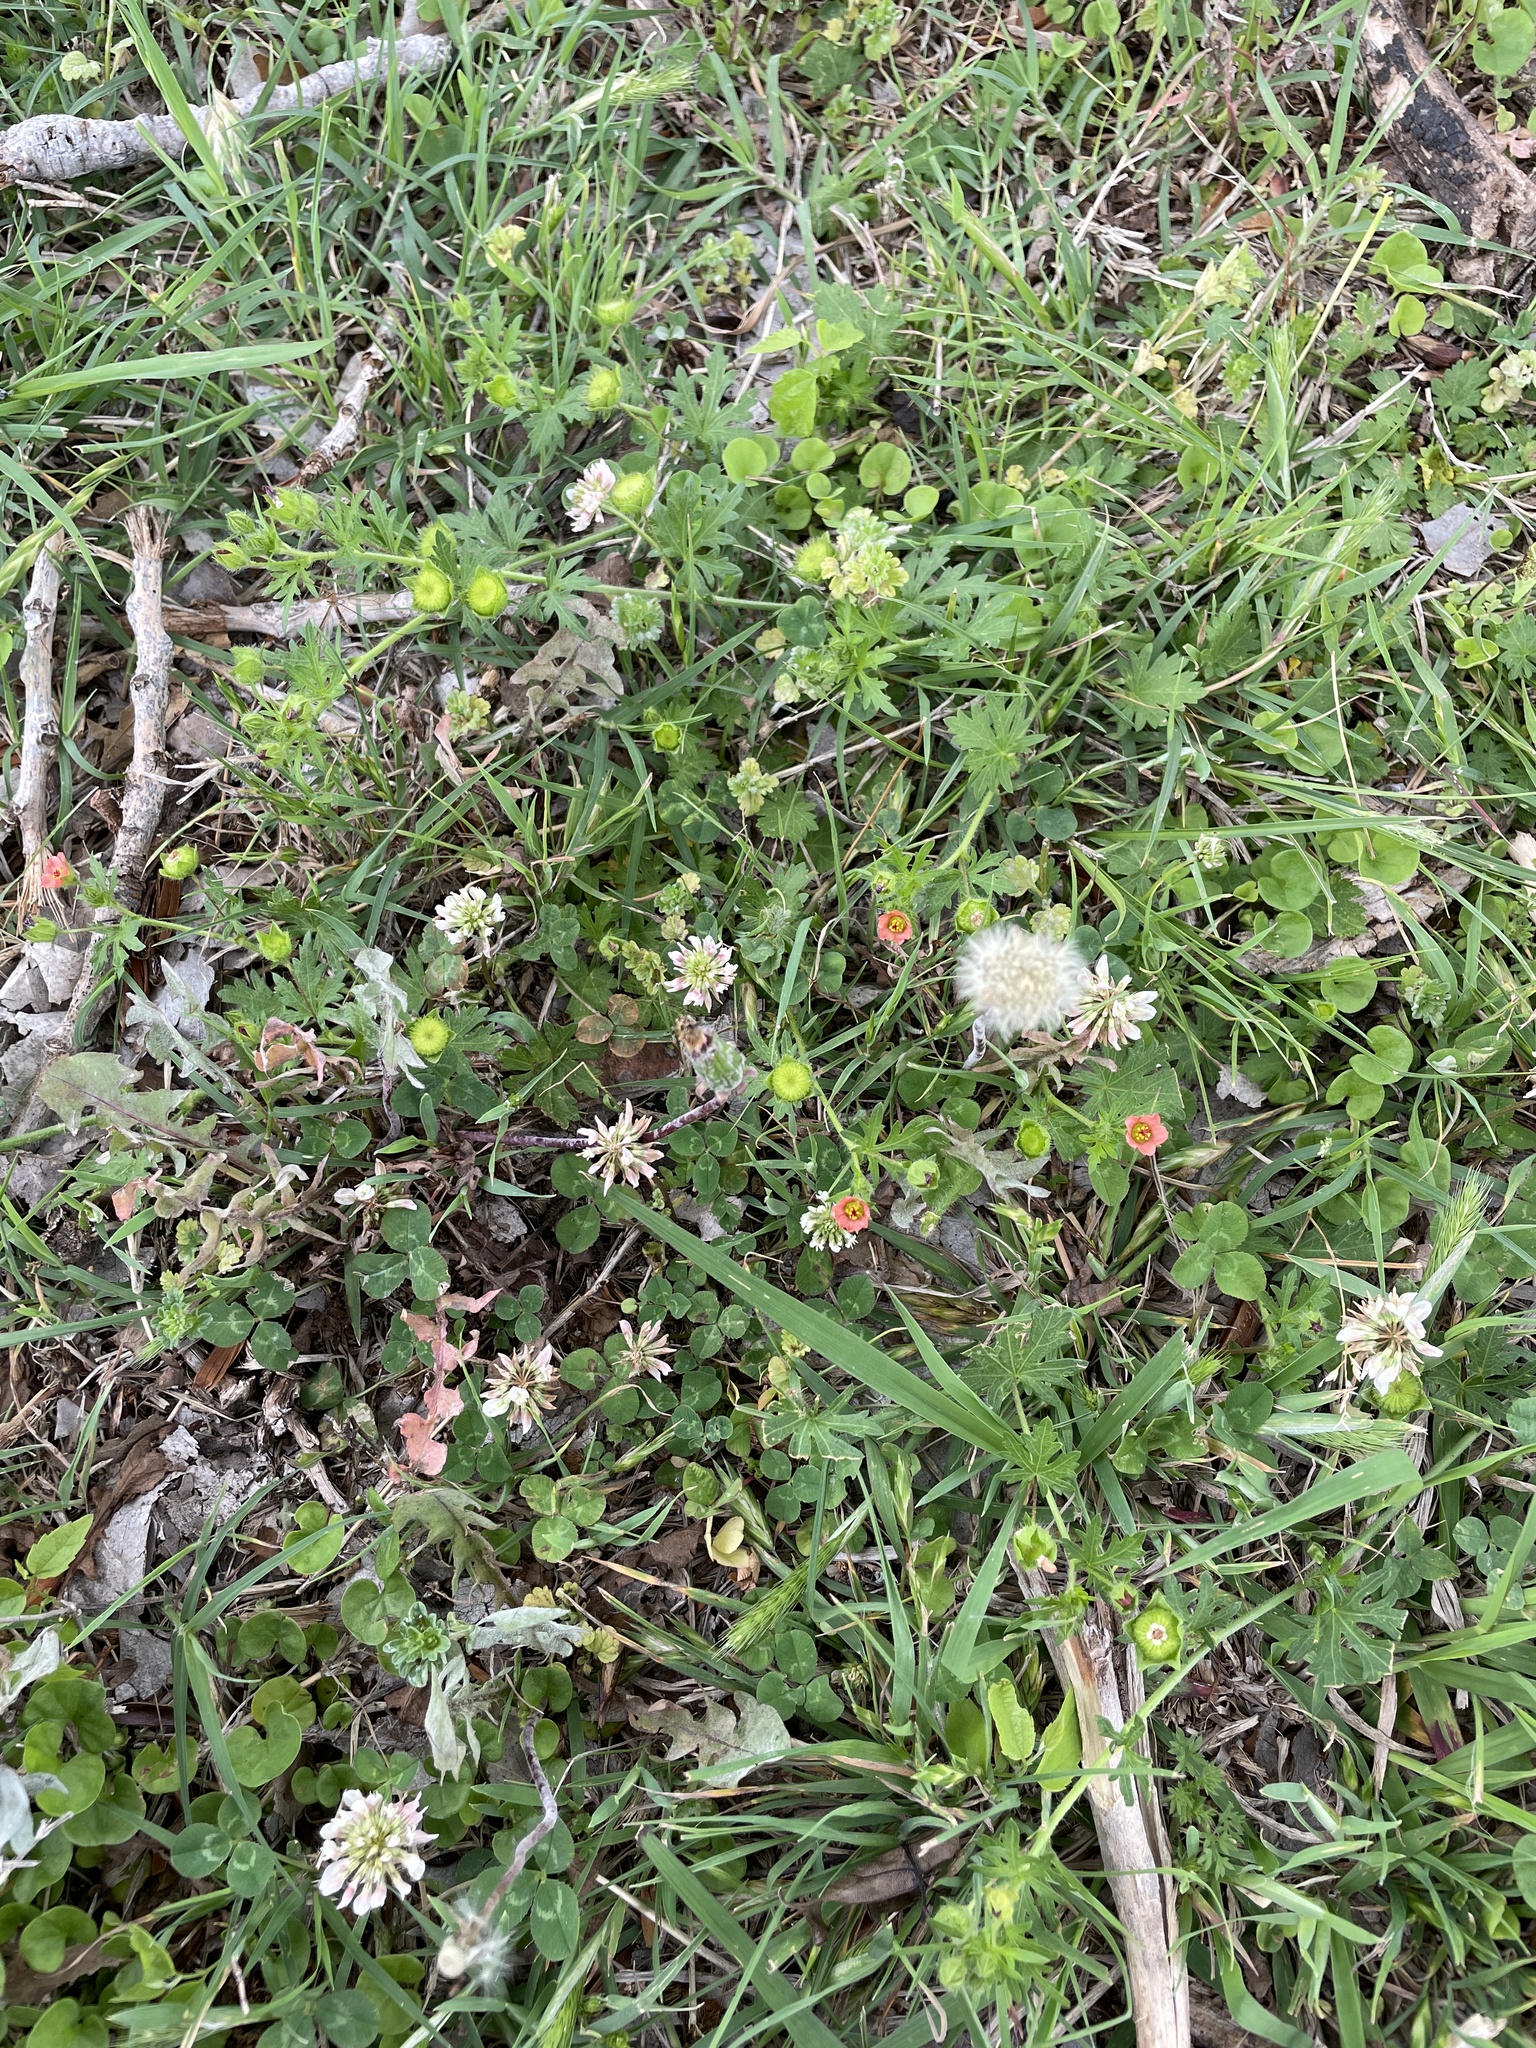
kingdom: Plantae
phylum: Tracheophyta
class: Magnoliopsida
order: Malvales
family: Malvaceae
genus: Modiola
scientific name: Modiola caroliniana
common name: Carolina bristlemallow
